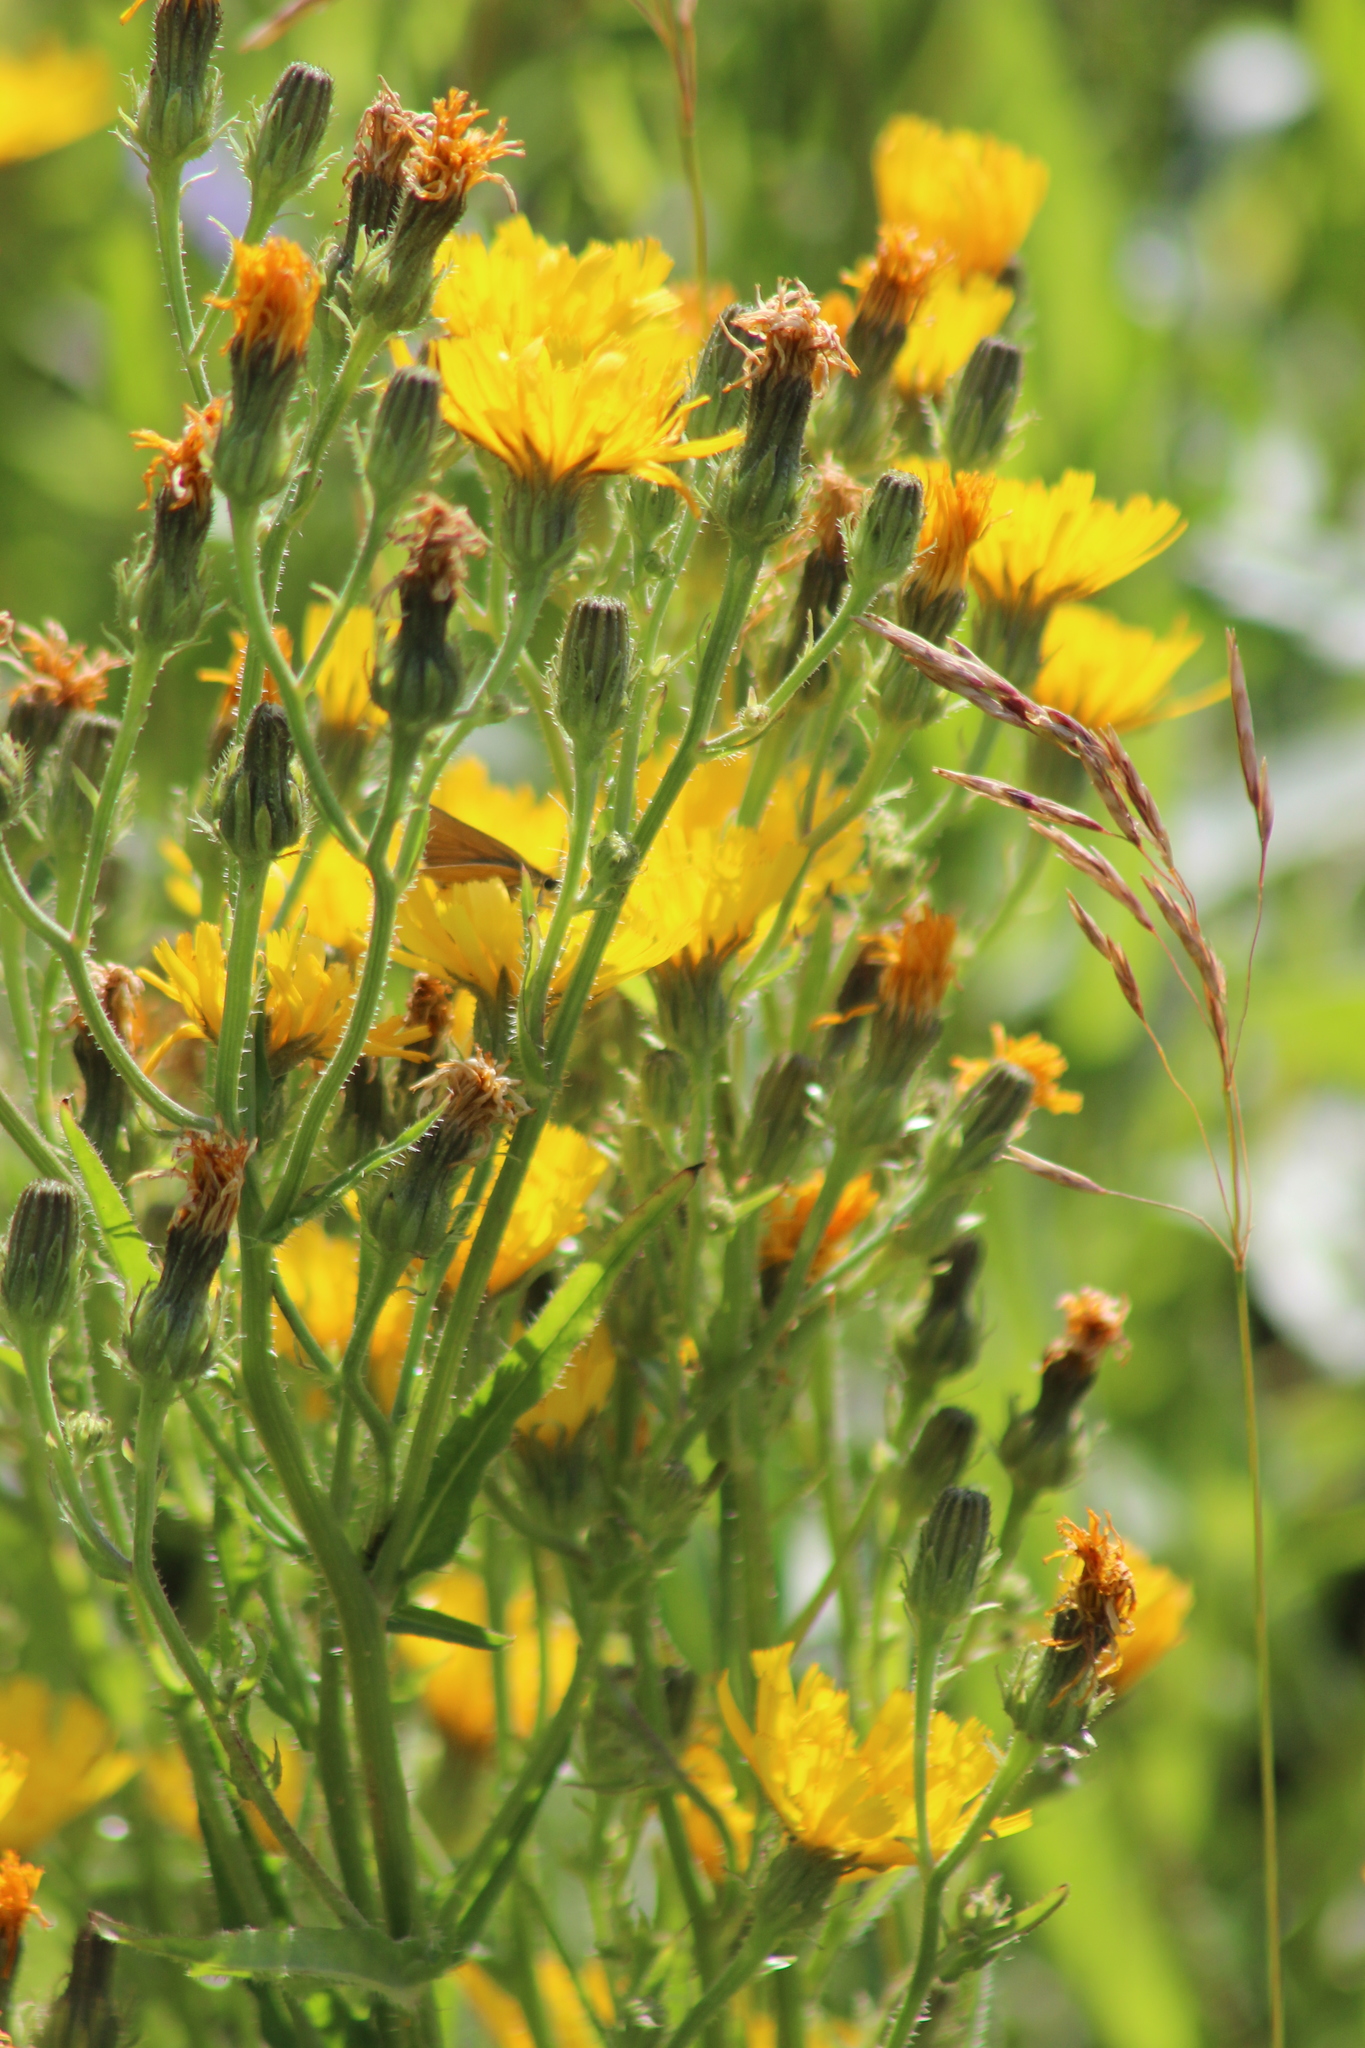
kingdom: Plantae
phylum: Tracheophyta
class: Magnoliopsida
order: Asterales
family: Asteraceae
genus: Picris
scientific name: Picris hieracioides
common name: Hawkweed oxtongue
